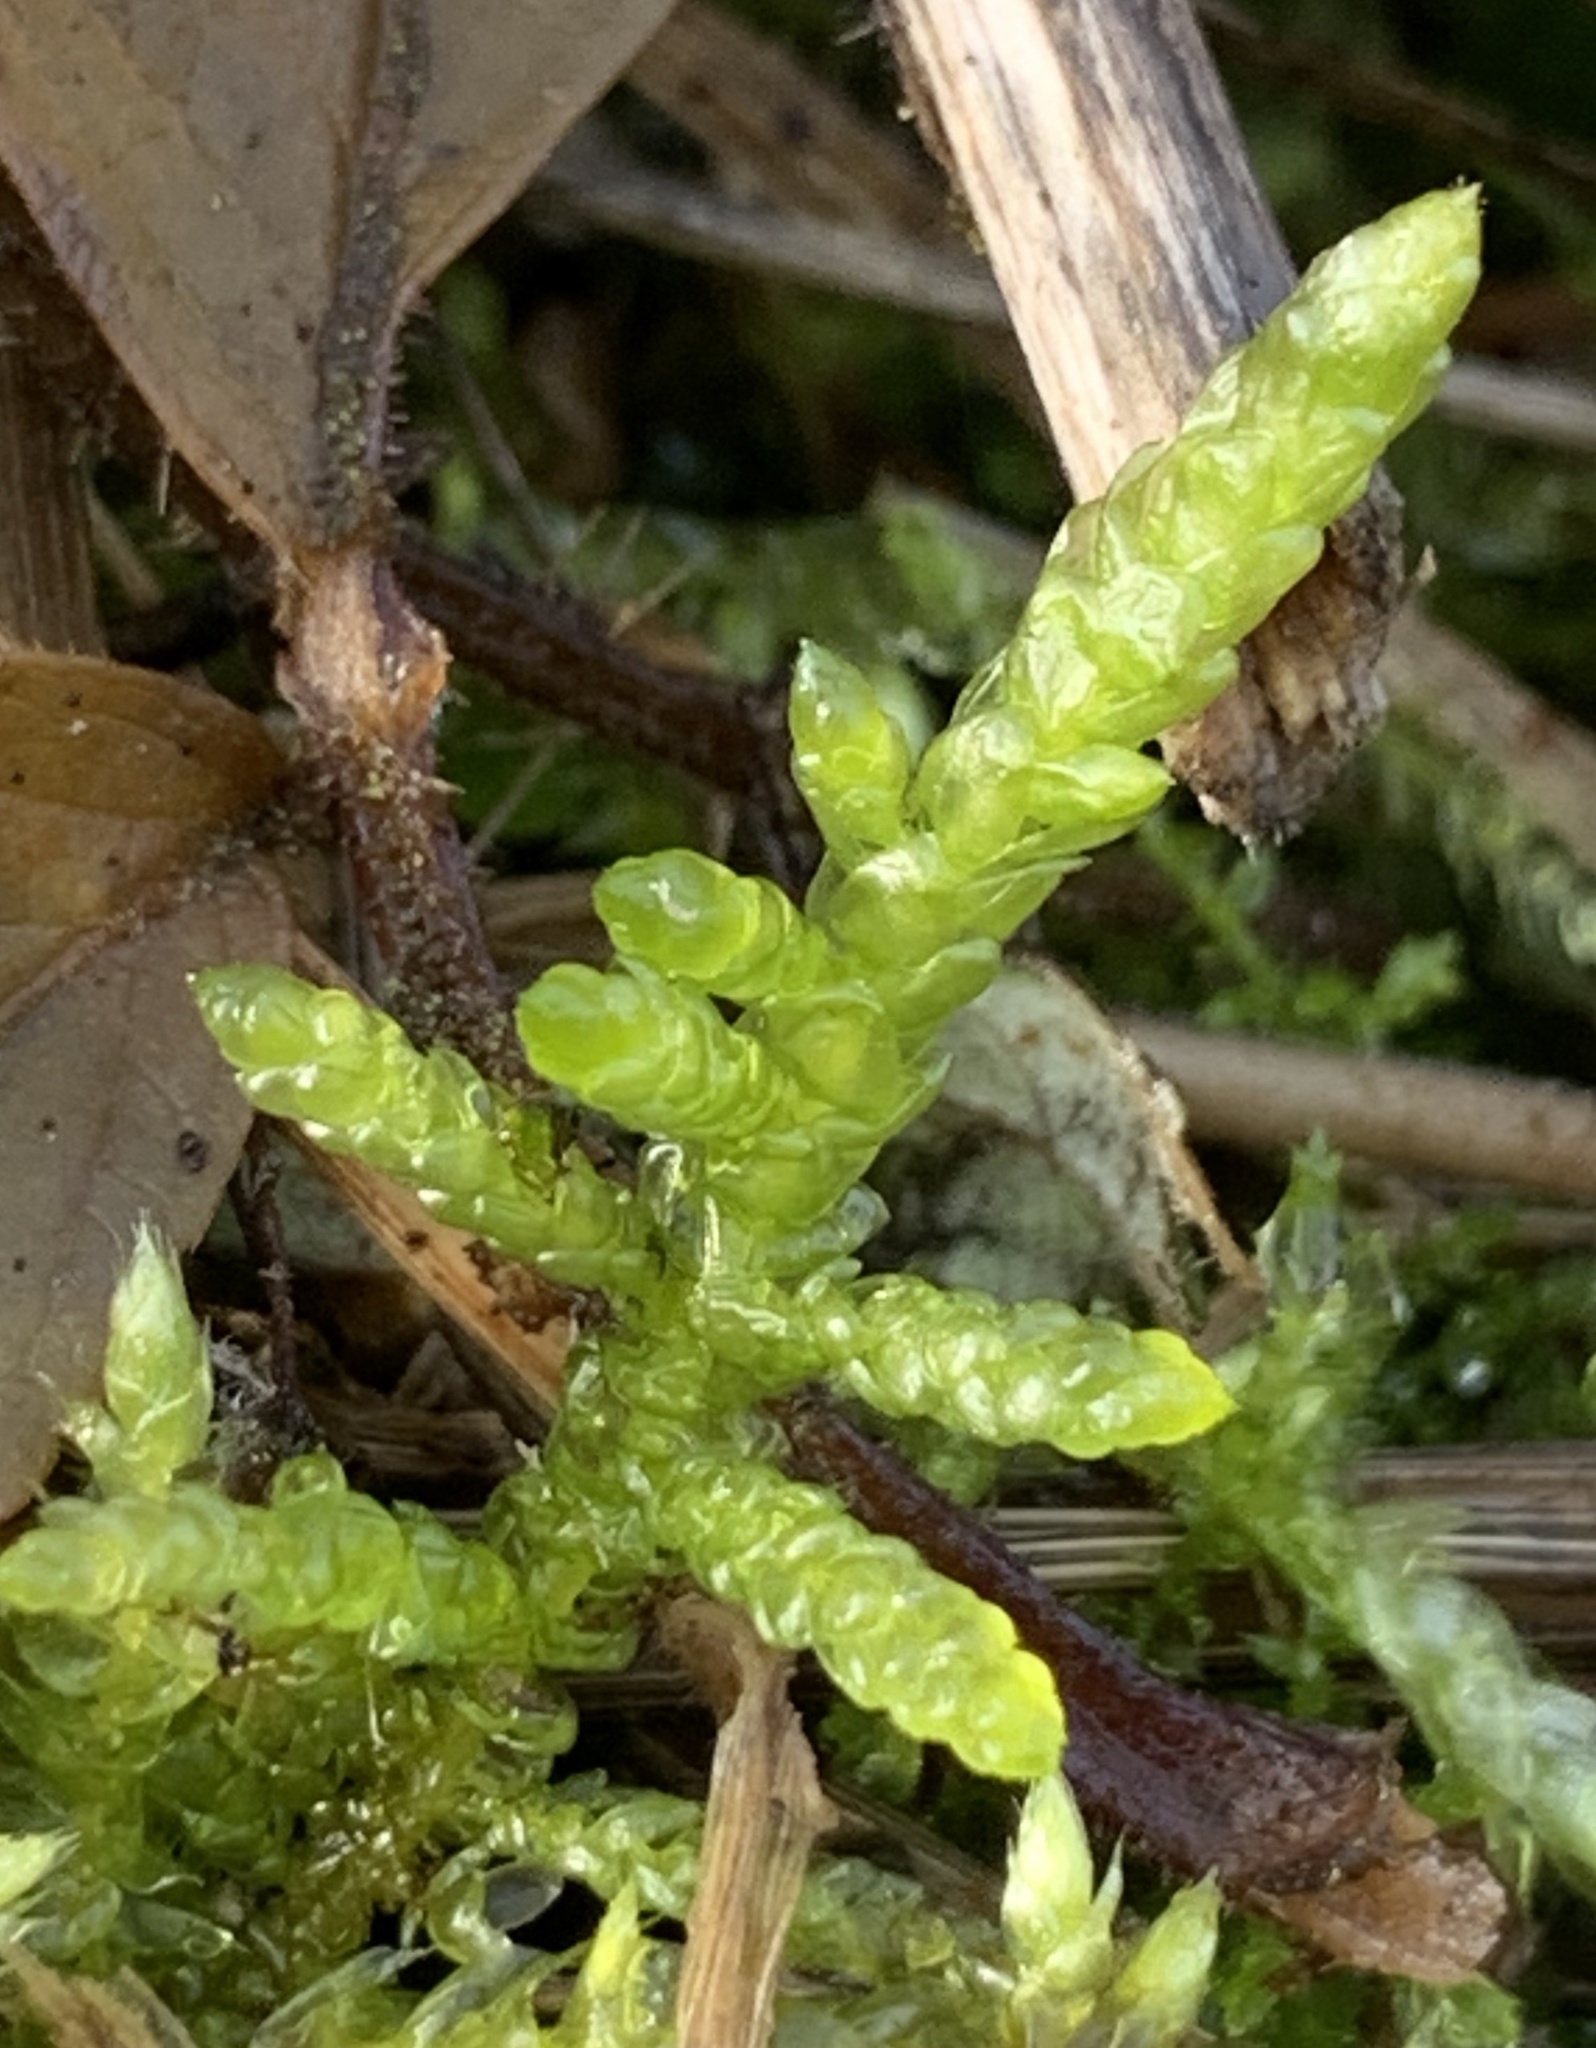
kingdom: Plantae
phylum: Bryophyta
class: Bryopsida
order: Hypnales
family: Brachytheciaceae
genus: Pseudoscleropodium
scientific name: Pseudoscleropodium purum
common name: Neat feather-moss
